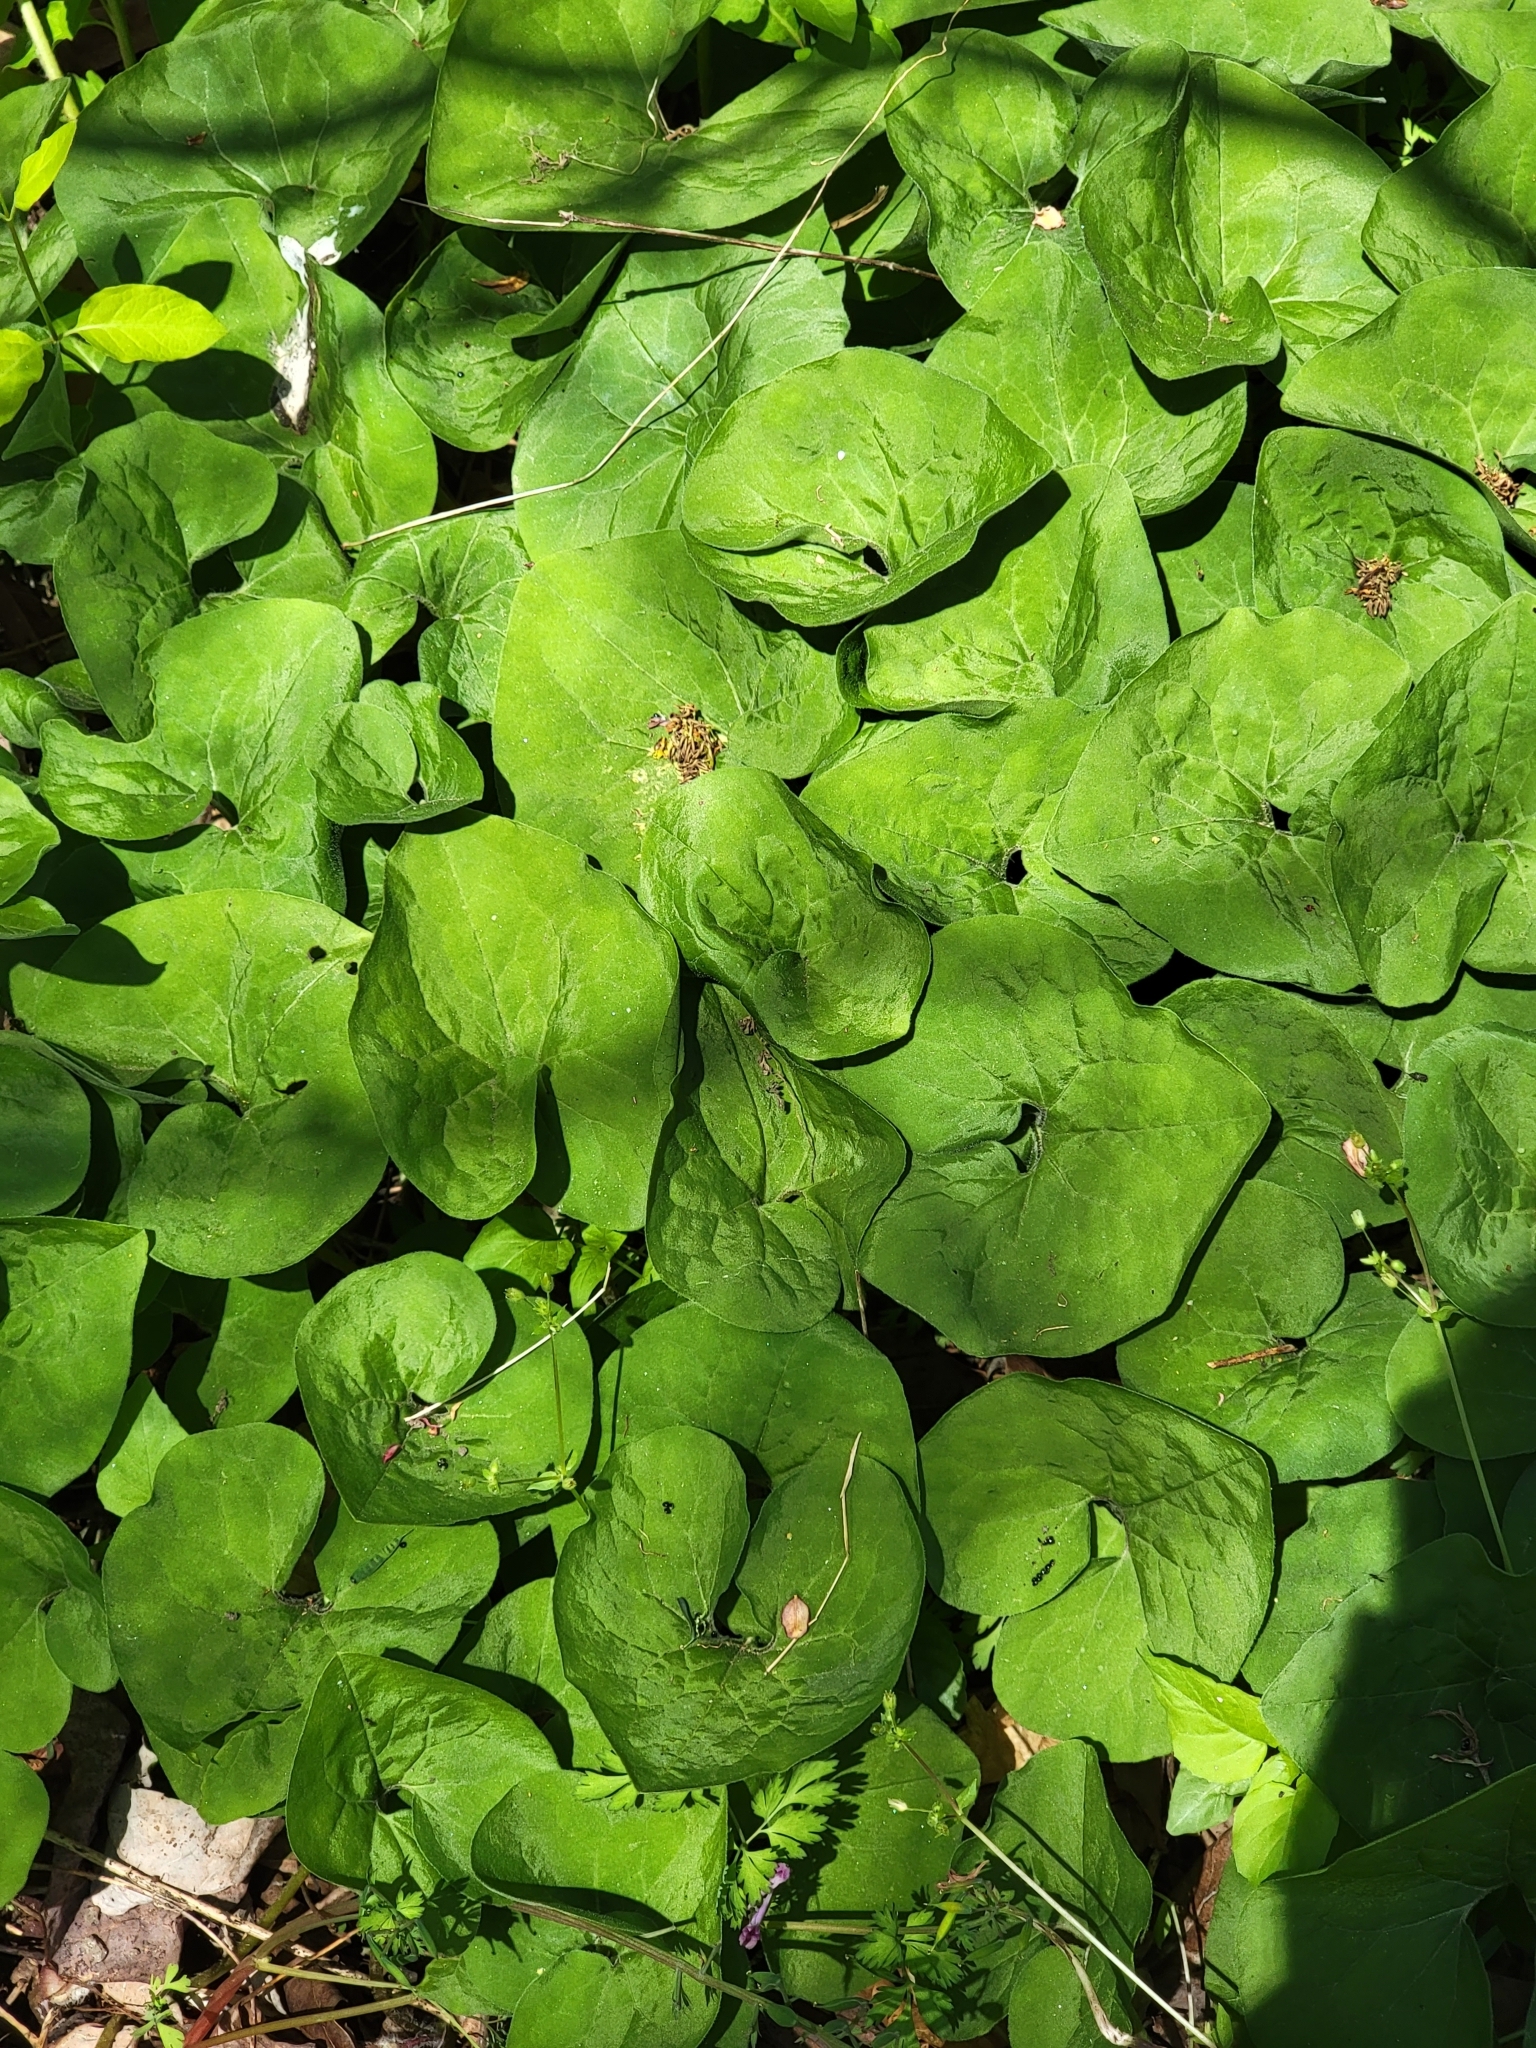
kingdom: Plantae
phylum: Tracheophyta
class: Magnoliopsida
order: Piperales
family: Aristolochiaceae
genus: Asarum
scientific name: Asarum canadense
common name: Wild ginger
